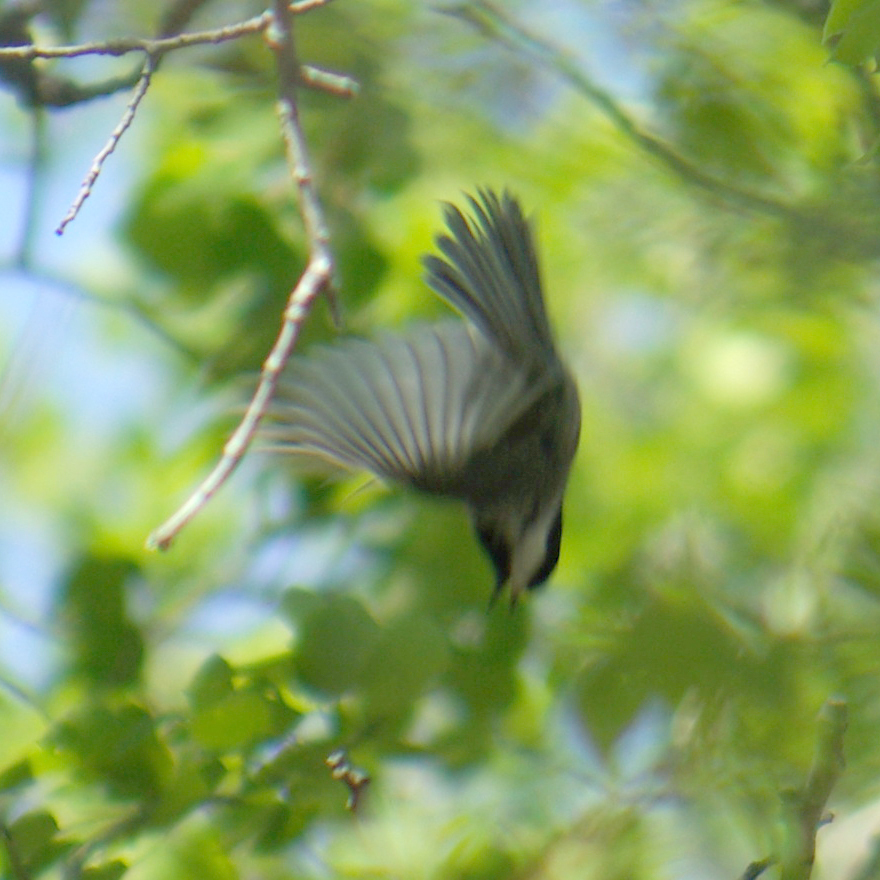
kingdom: Animalia
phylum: Chordata
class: Aves
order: Passeriformes
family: Paridae
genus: Poecile
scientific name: Poecile atricapillus
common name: Black-capped chickadee
